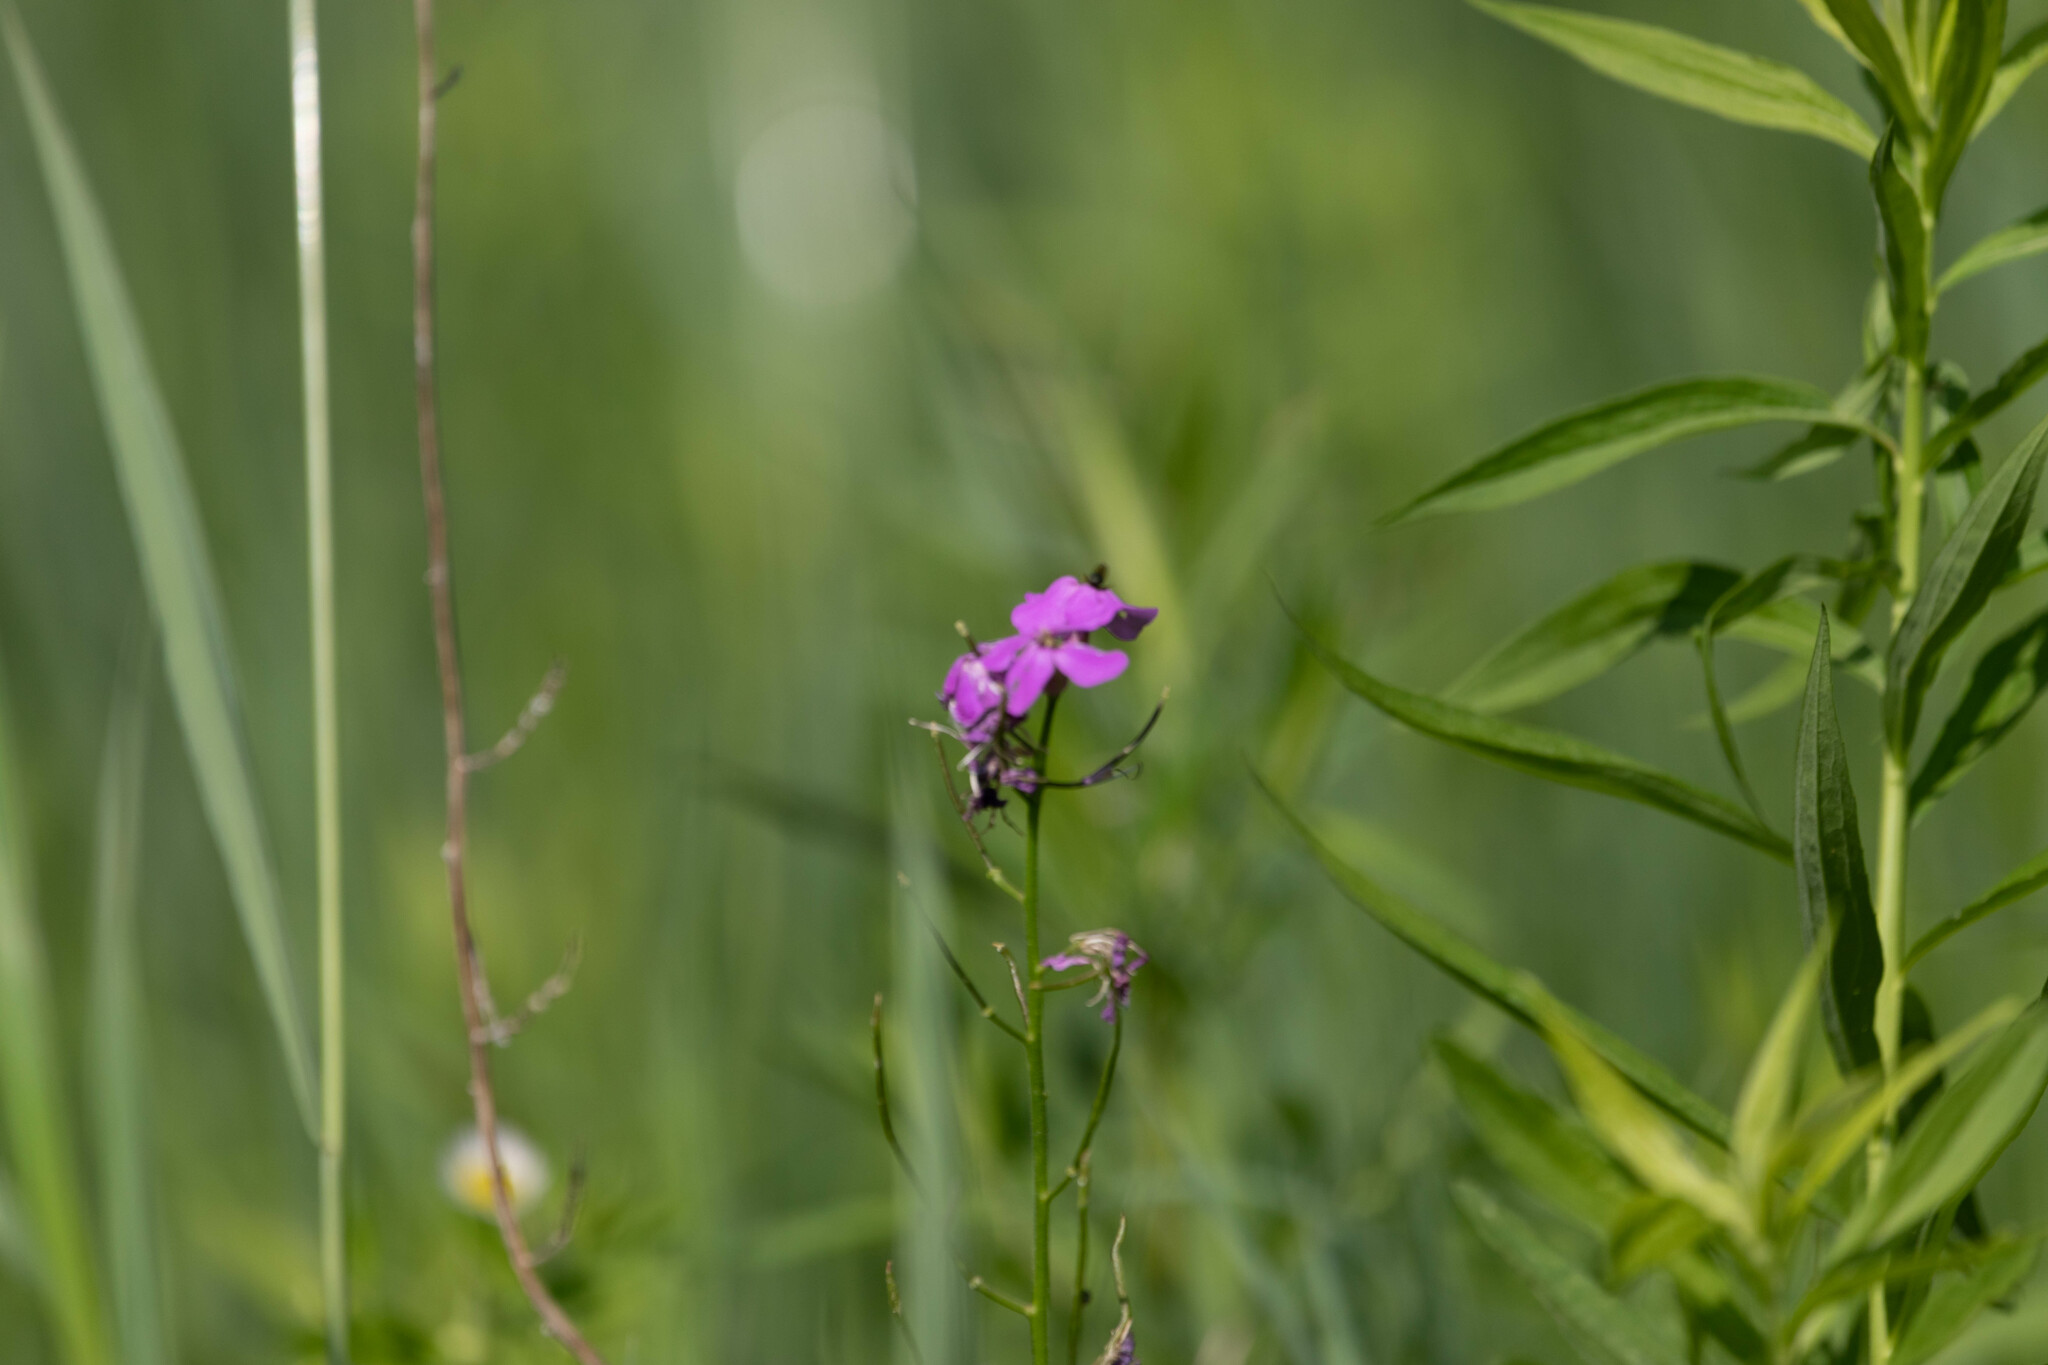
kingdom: Plantae
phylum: Tracheophyta
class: Magnoliopsida
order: Brassicales
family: Brassicaceae
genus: Hesperis
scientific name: Hesperis matronalis
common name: Dame's-violet
